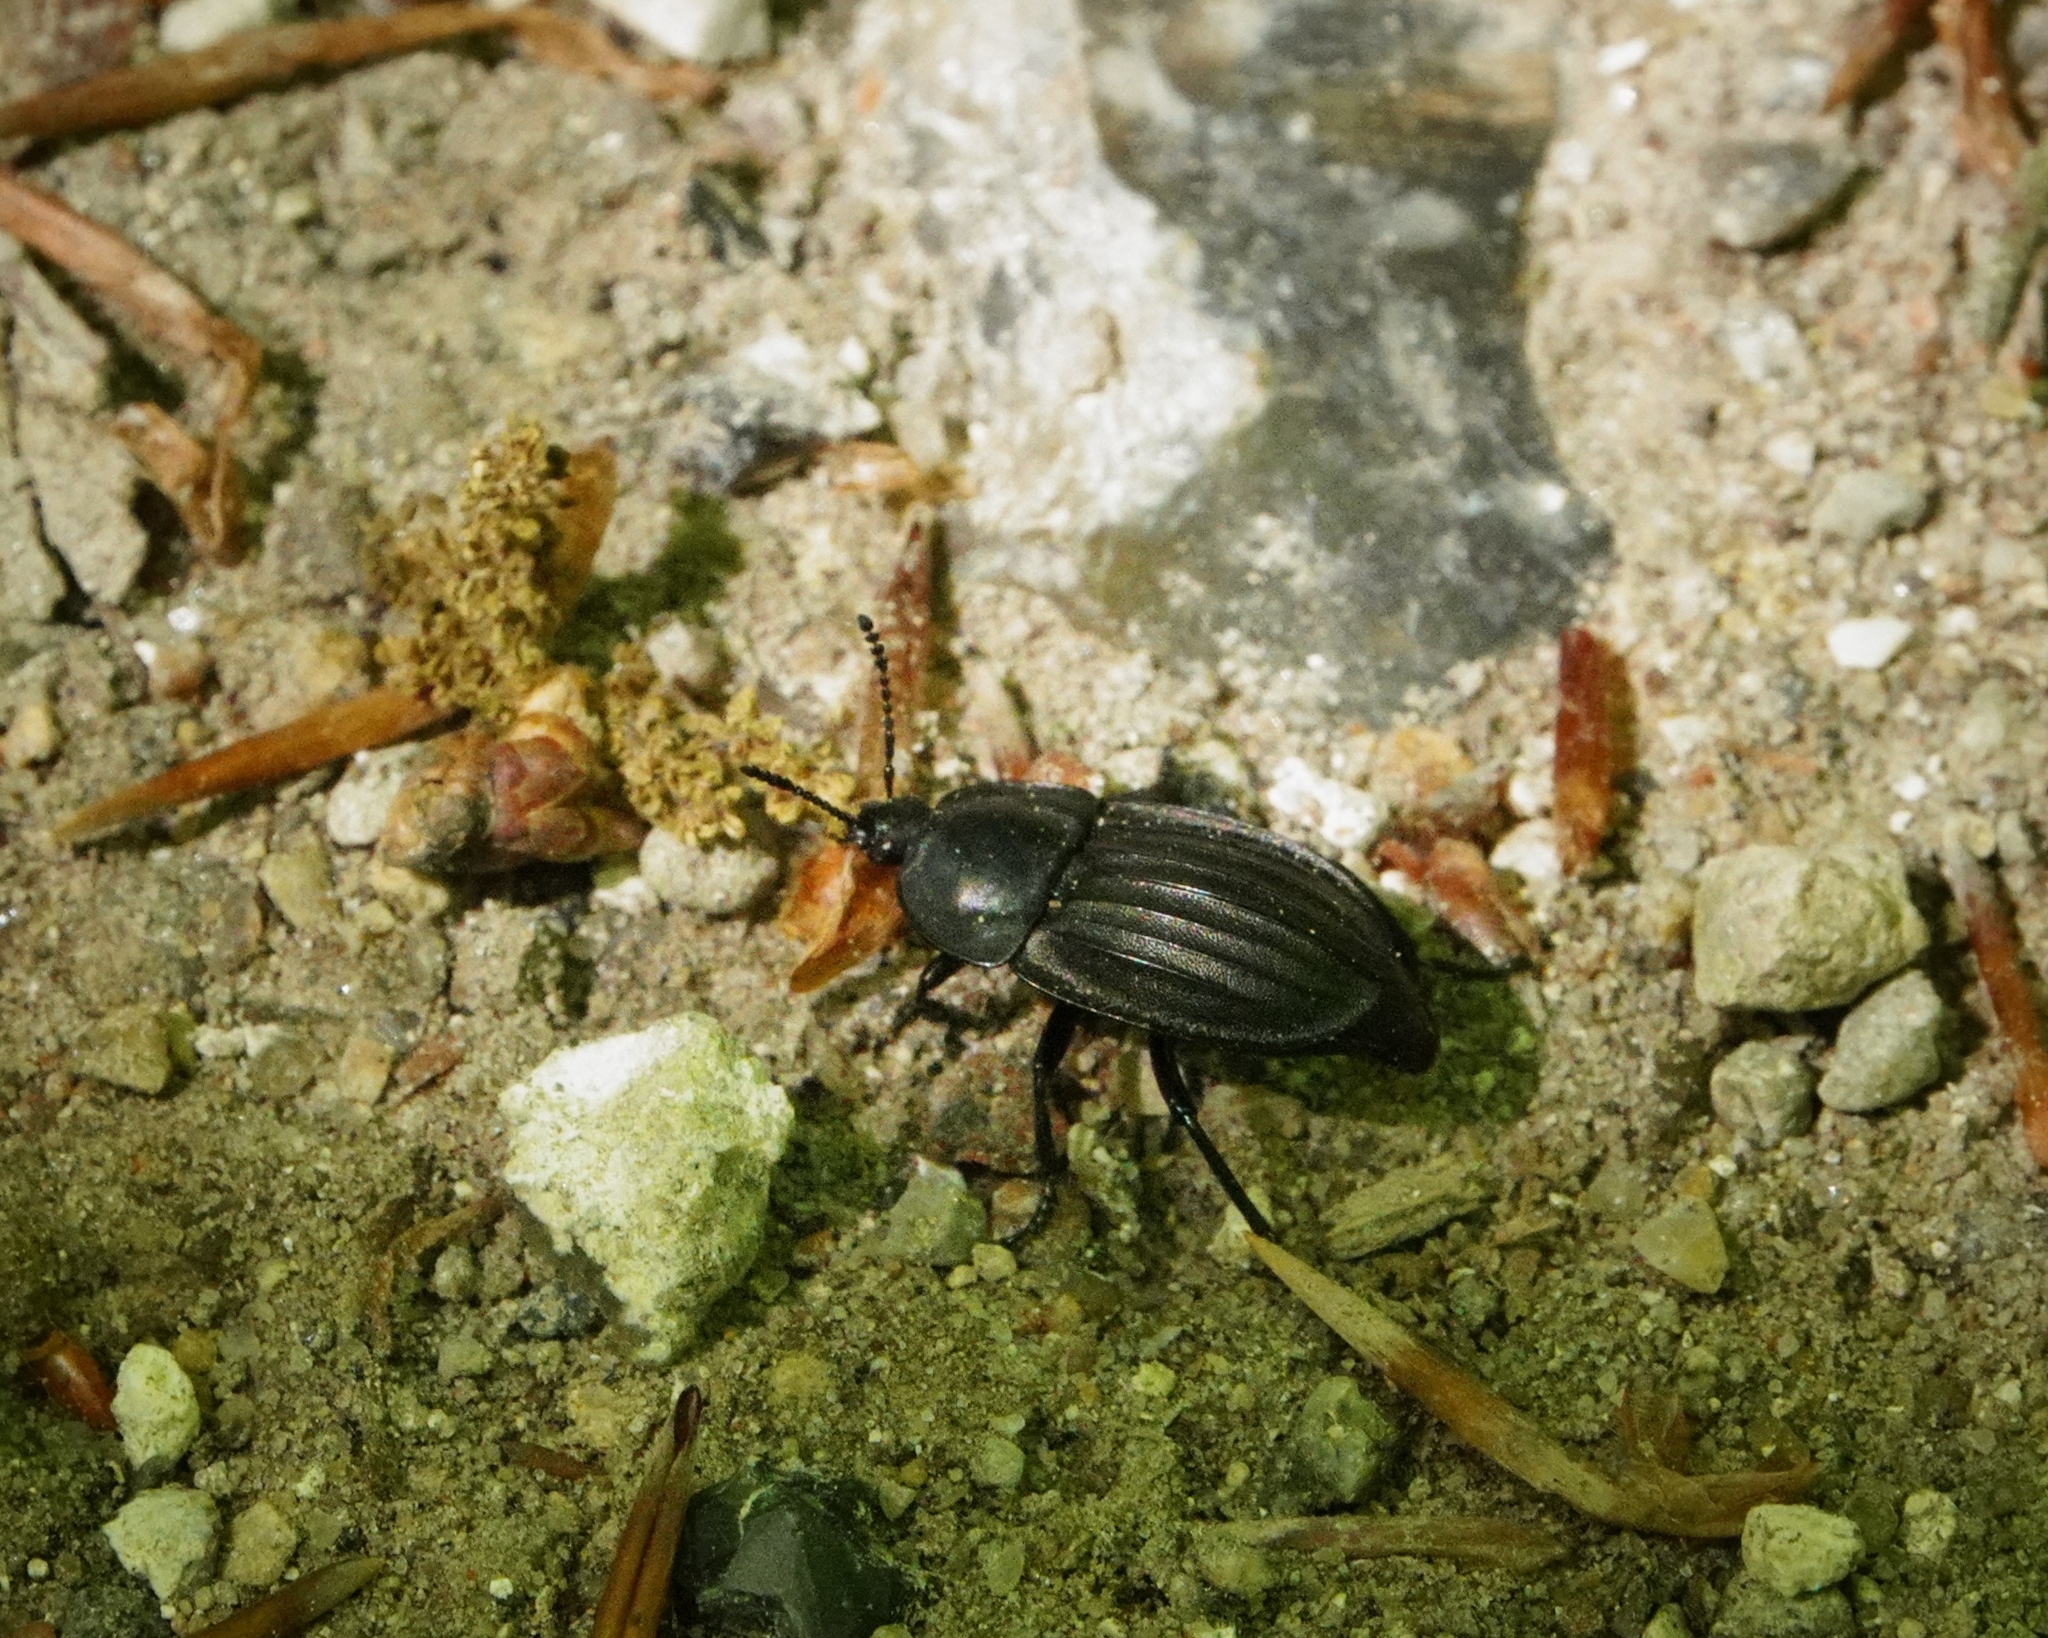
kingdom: Animalia
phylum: Arthropoda
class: Insecta
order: Coleoptera
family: Staphylinidae
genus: Silpha
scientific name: Silpha carinata
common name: Silphid beetle
